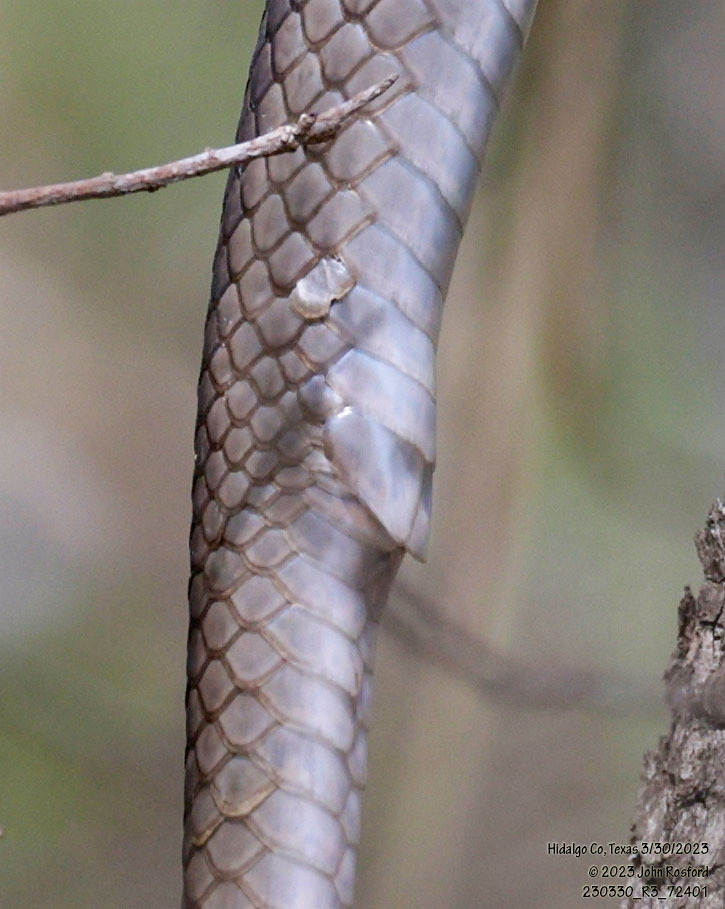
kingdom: Animalia
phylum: Chordata
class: Squamata
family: Colubridae
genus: Masticophis
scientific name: Masticophis schotti
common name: Schott's whipsnake
